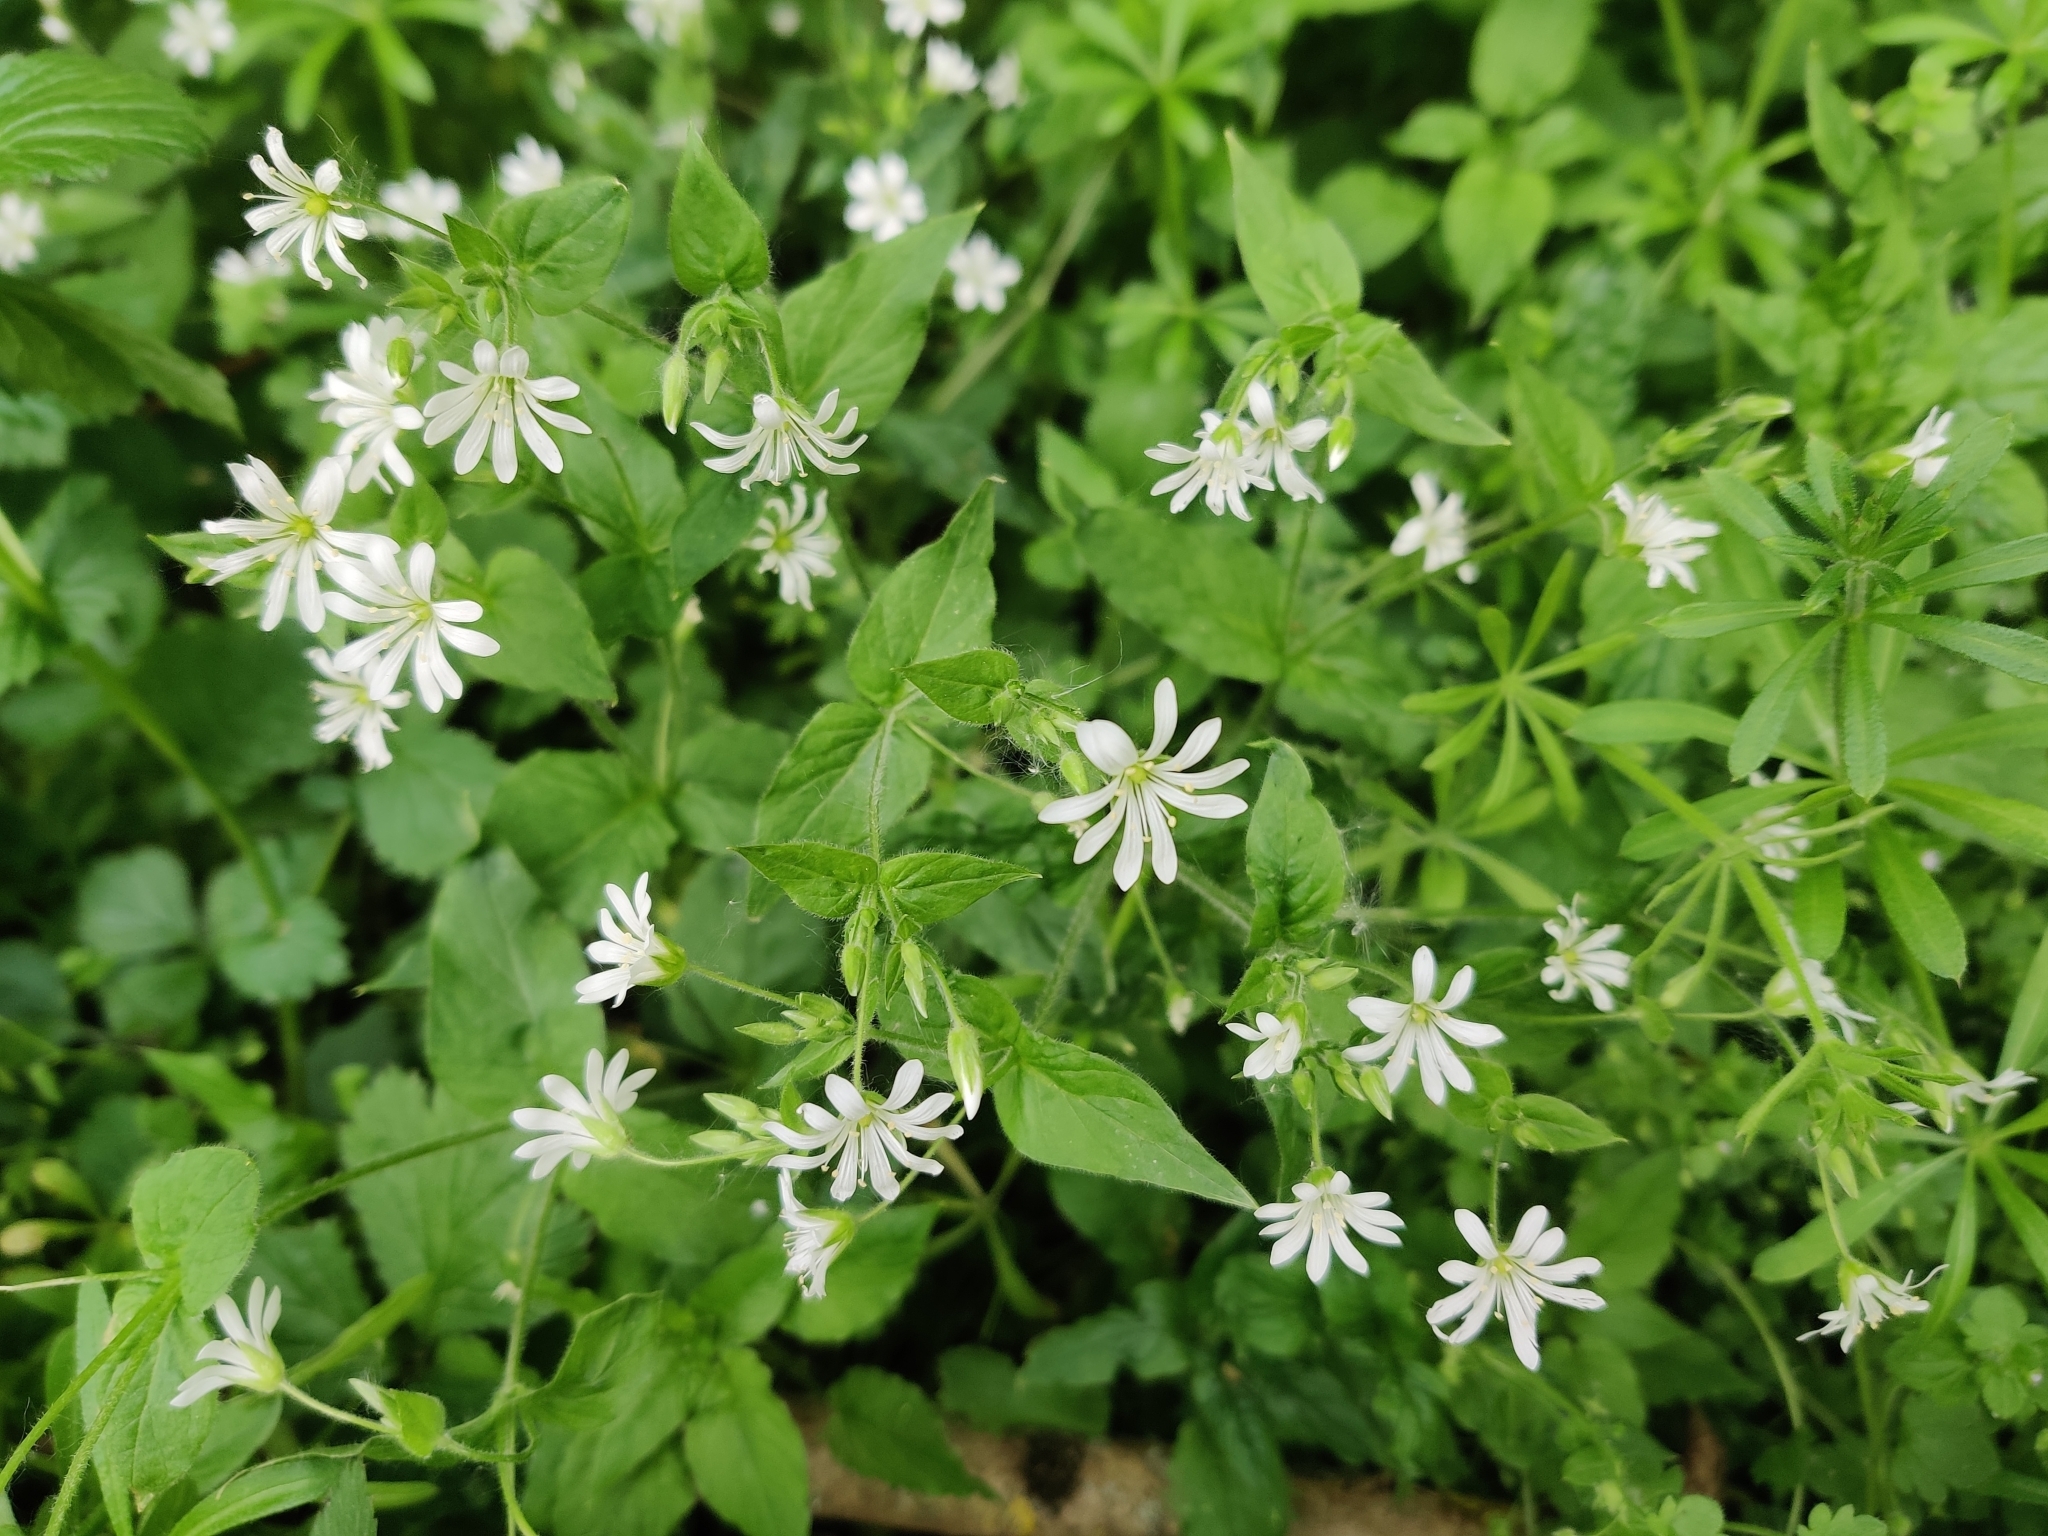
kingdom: Plantae
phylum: Tracheophyta
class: Magnoliopsida
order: Caryophyllales
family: Caryophyllaceae
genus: Stellaria
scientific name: Stellaria nemorum
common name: Wood stitchwort
